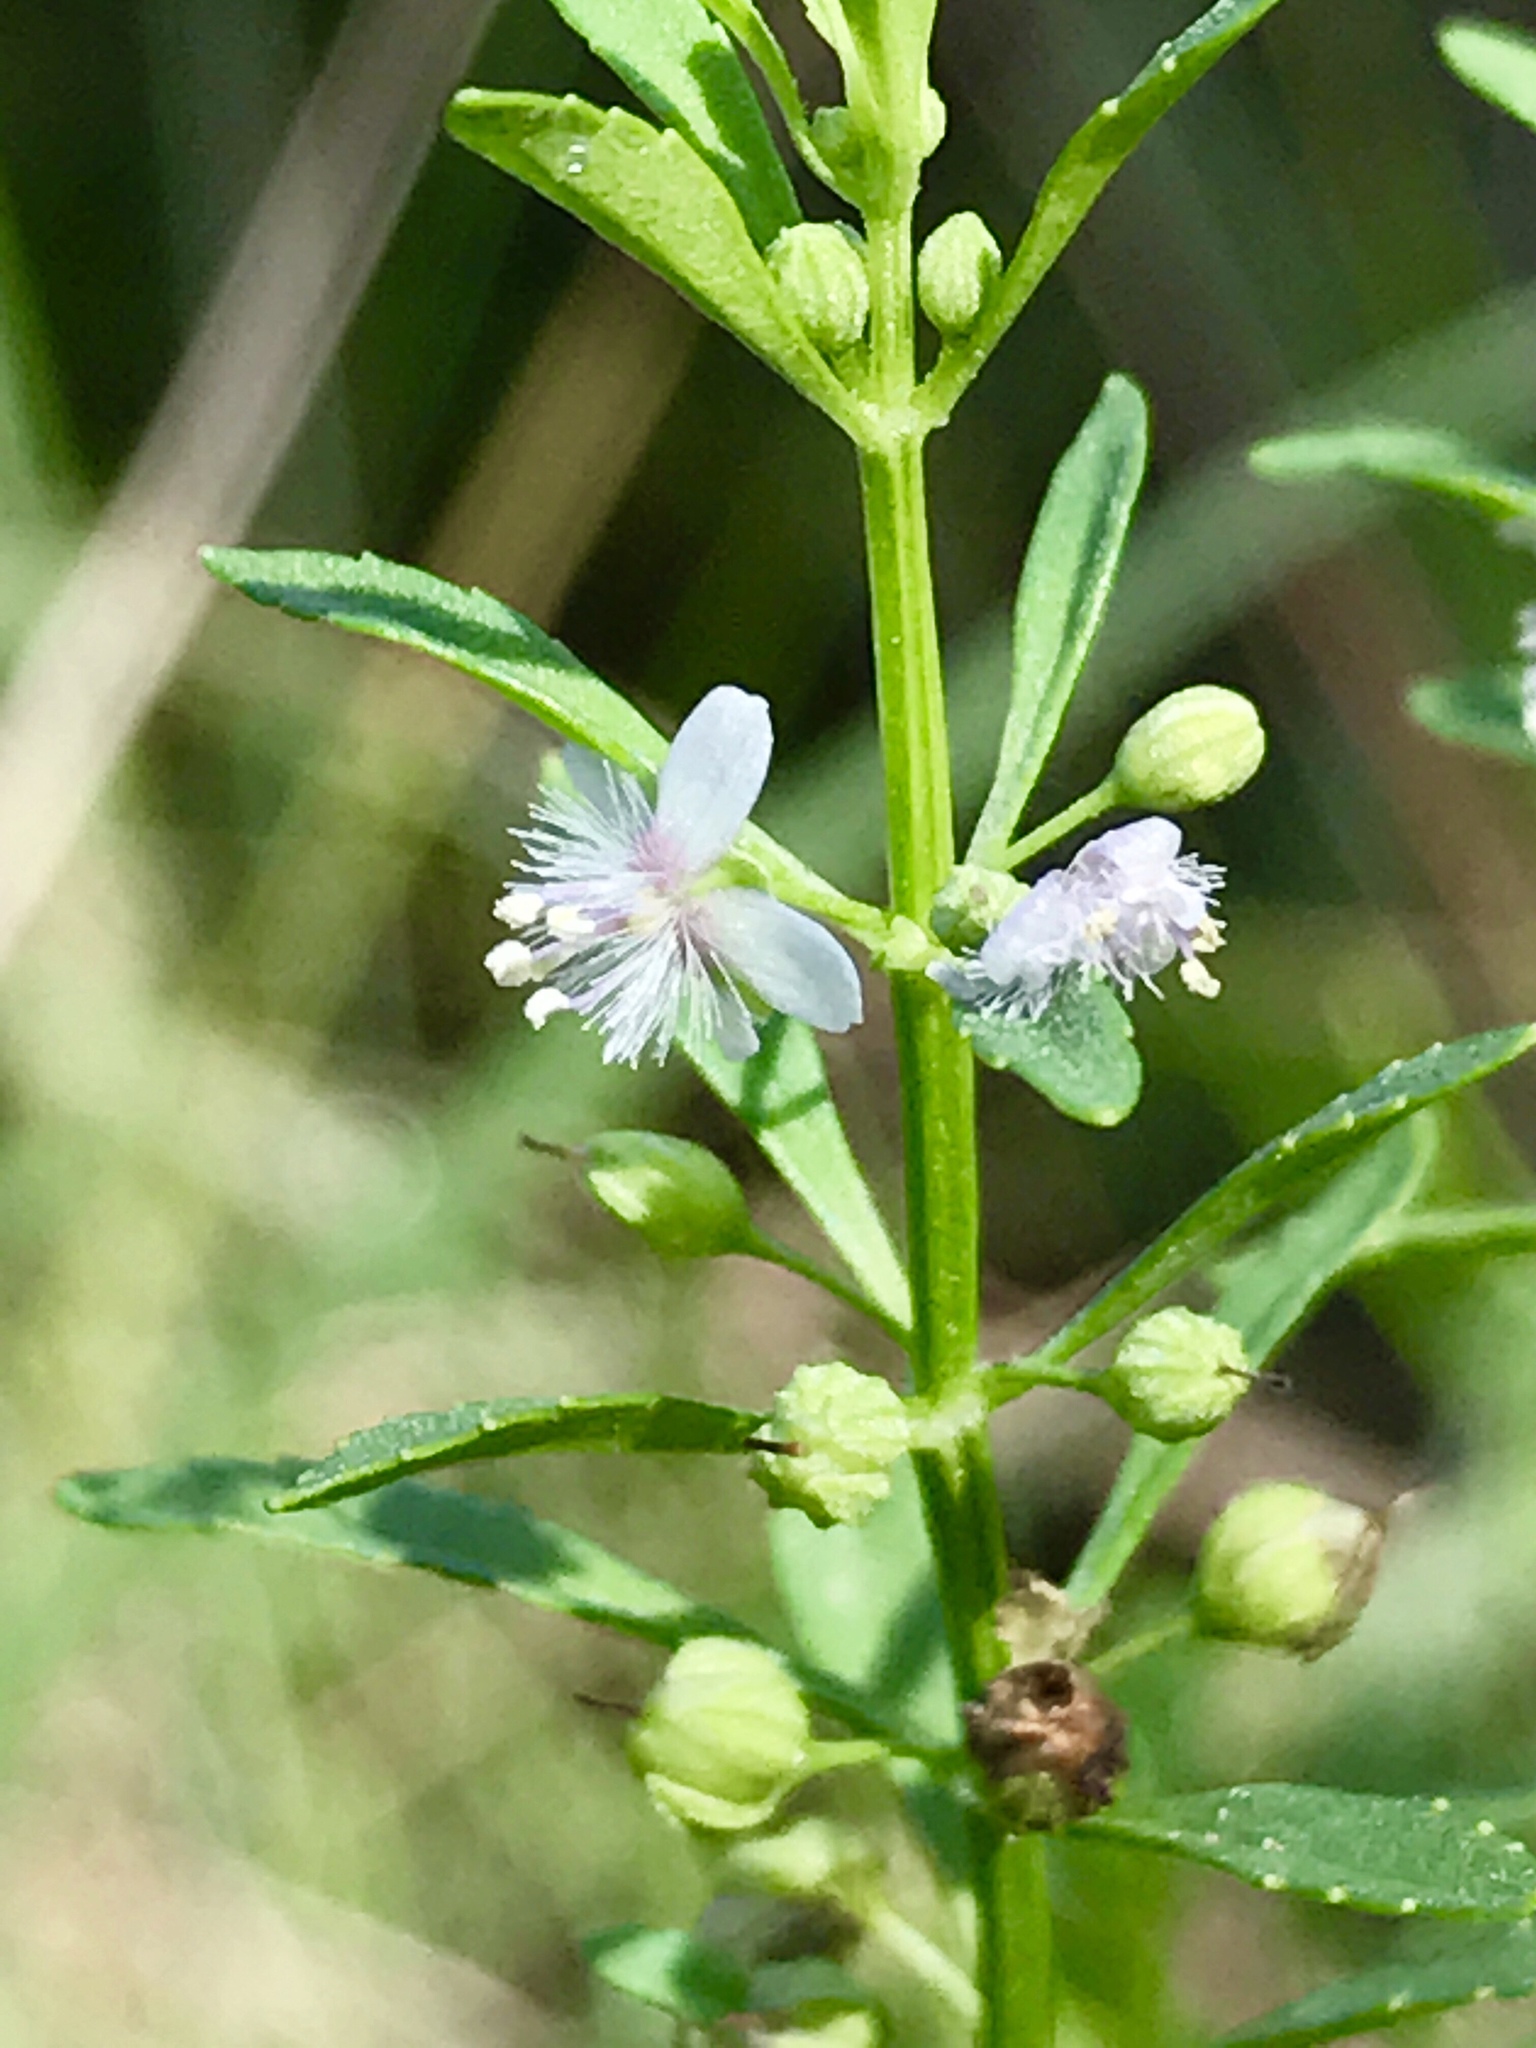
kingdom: Plantae
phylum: Tracheophyta
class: Magnoliopsida
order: Lamiales
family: Plantaginaceae
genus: Scoparia
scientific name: Scoparia dulcis
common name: Scoparia-weed
